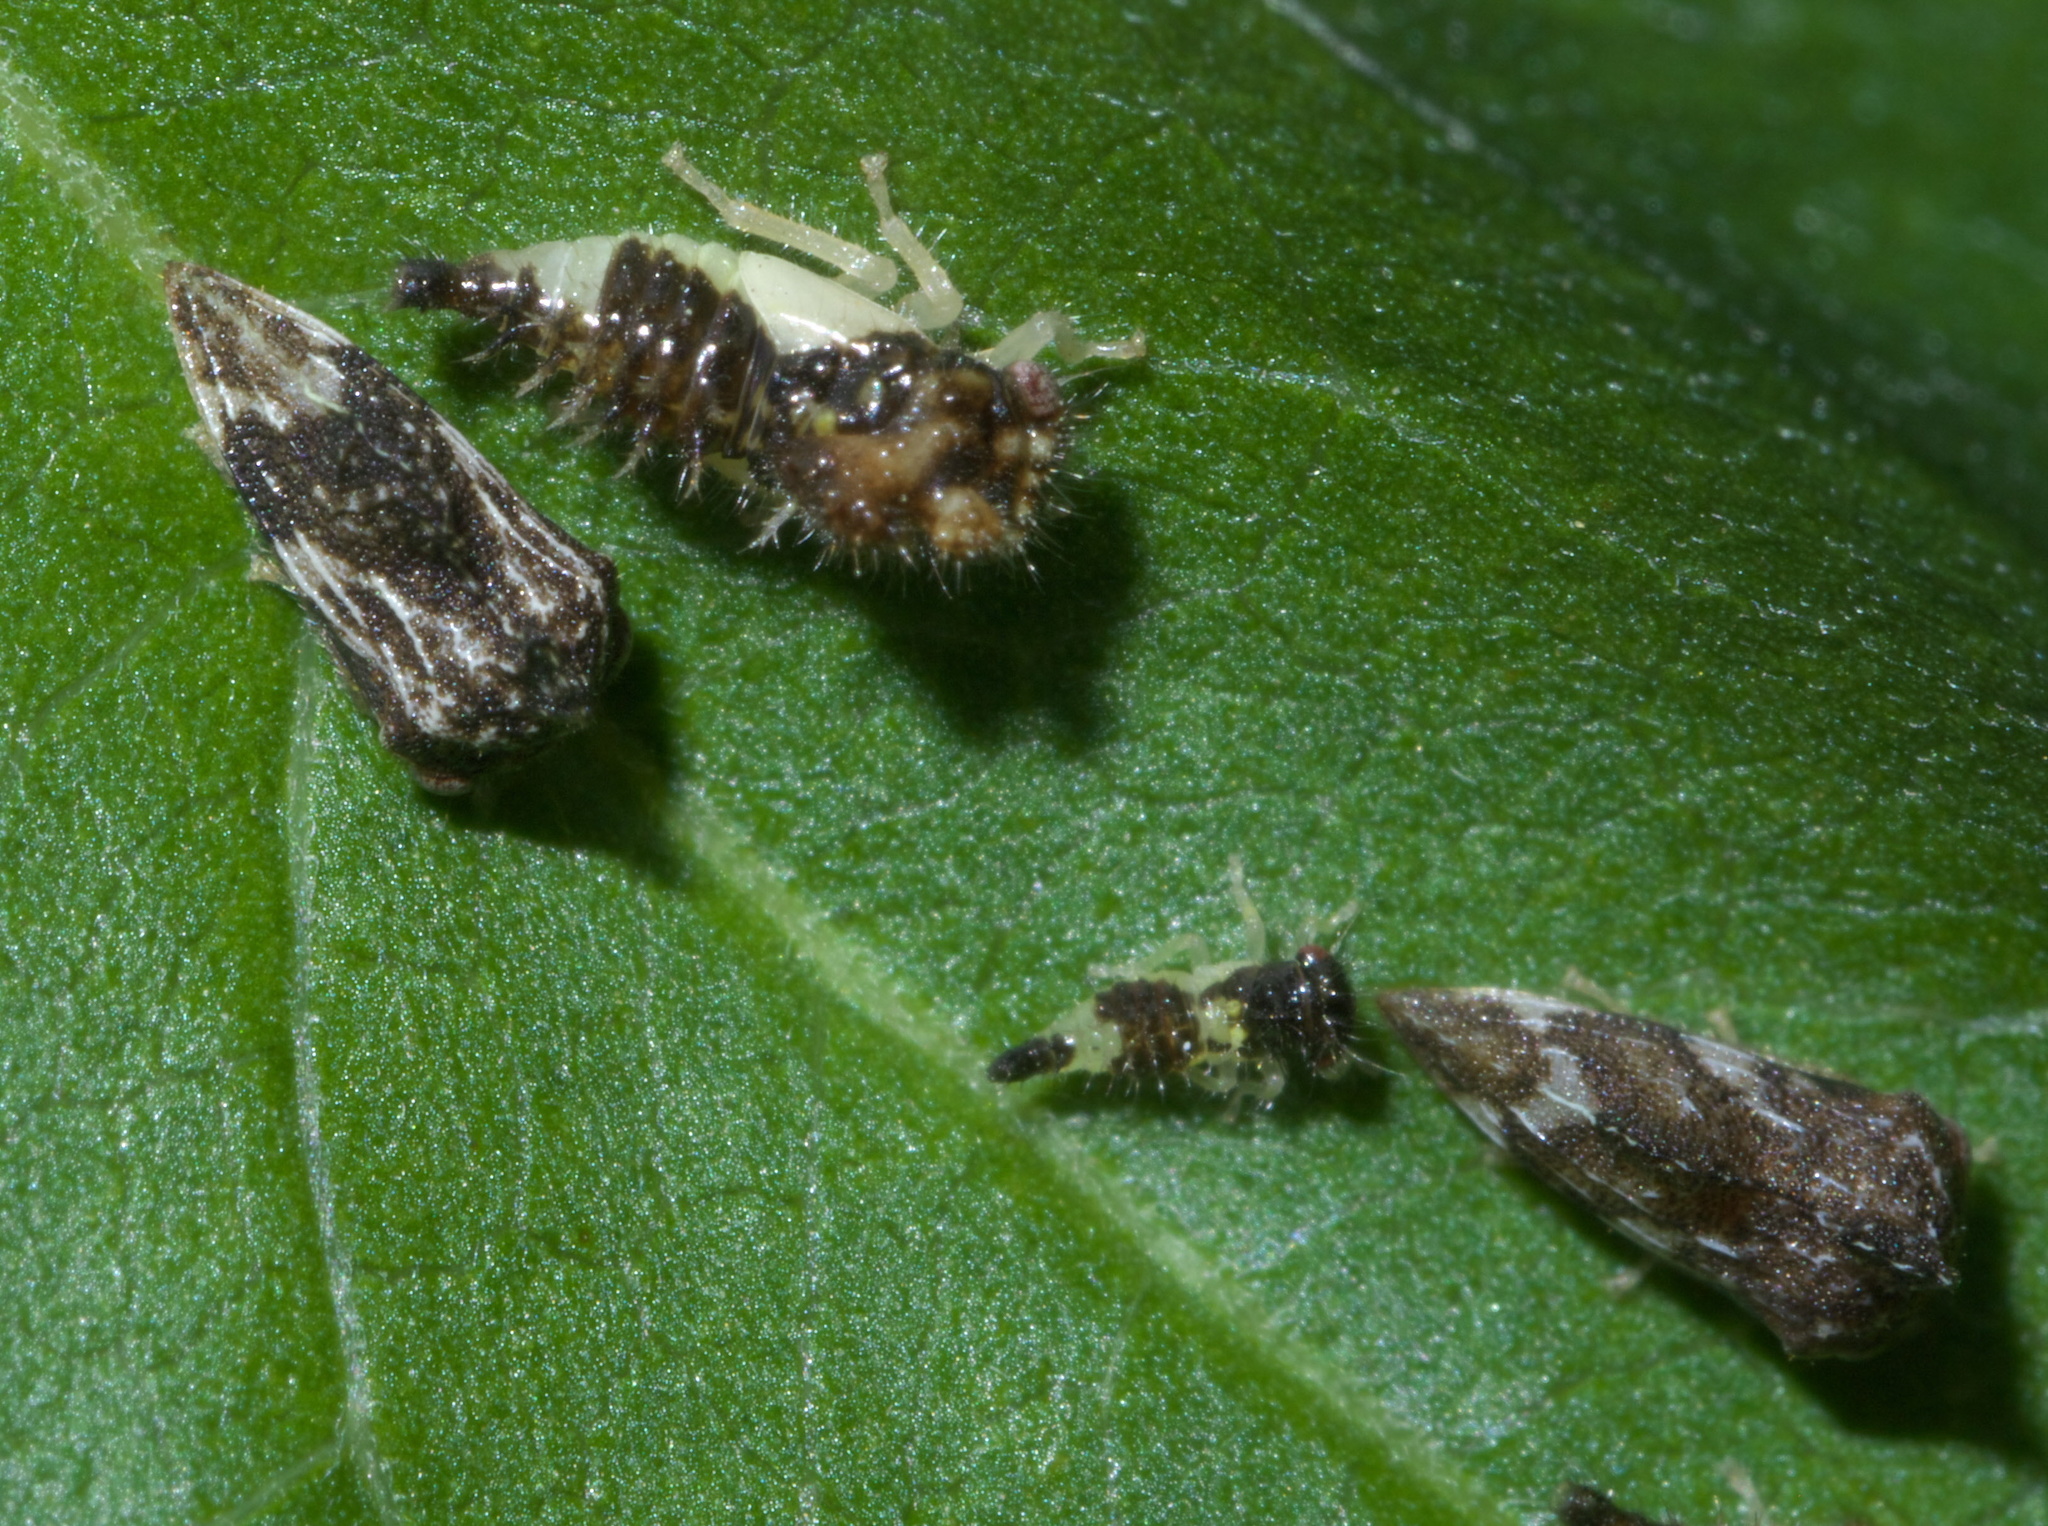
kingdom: Animalia
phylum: Arthropoda
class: Insecta
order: Hemiptera
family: Membracidae
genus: Entylia
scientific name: Entylia carinata
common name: Keeled treehopper
